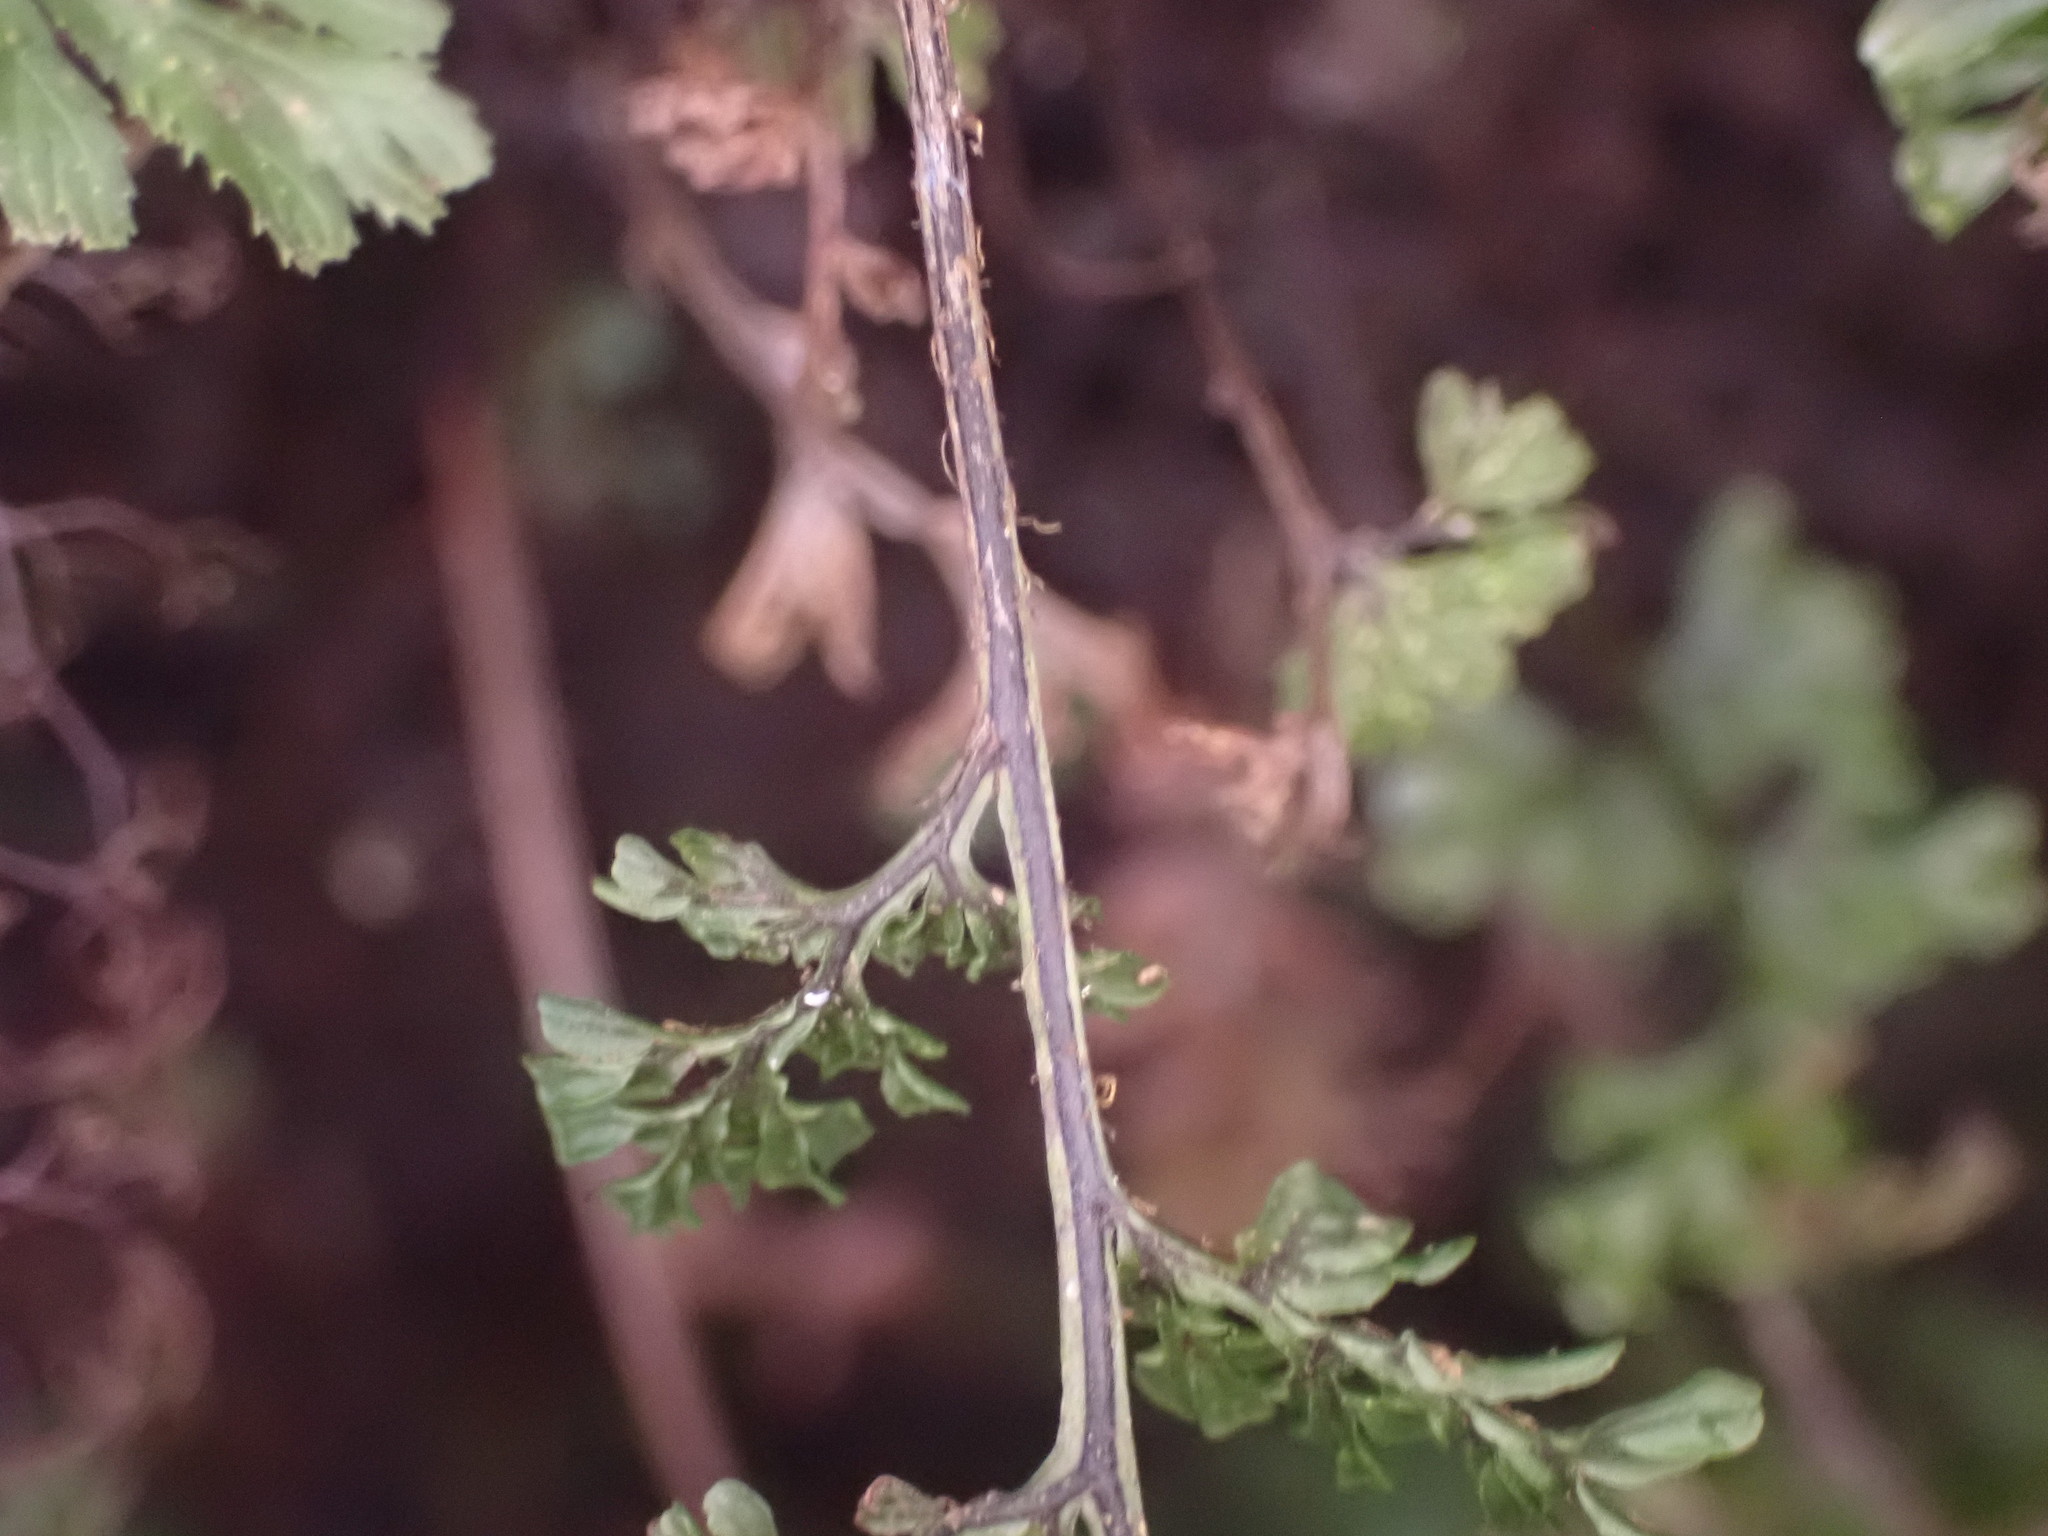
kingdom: Plantae
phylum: Tracheophyta
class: Polypodiopsida
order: Hymenophyllales
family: Hymenophyllaceae
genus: Hymenophyllum
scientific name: Hymenophyllum villosum
